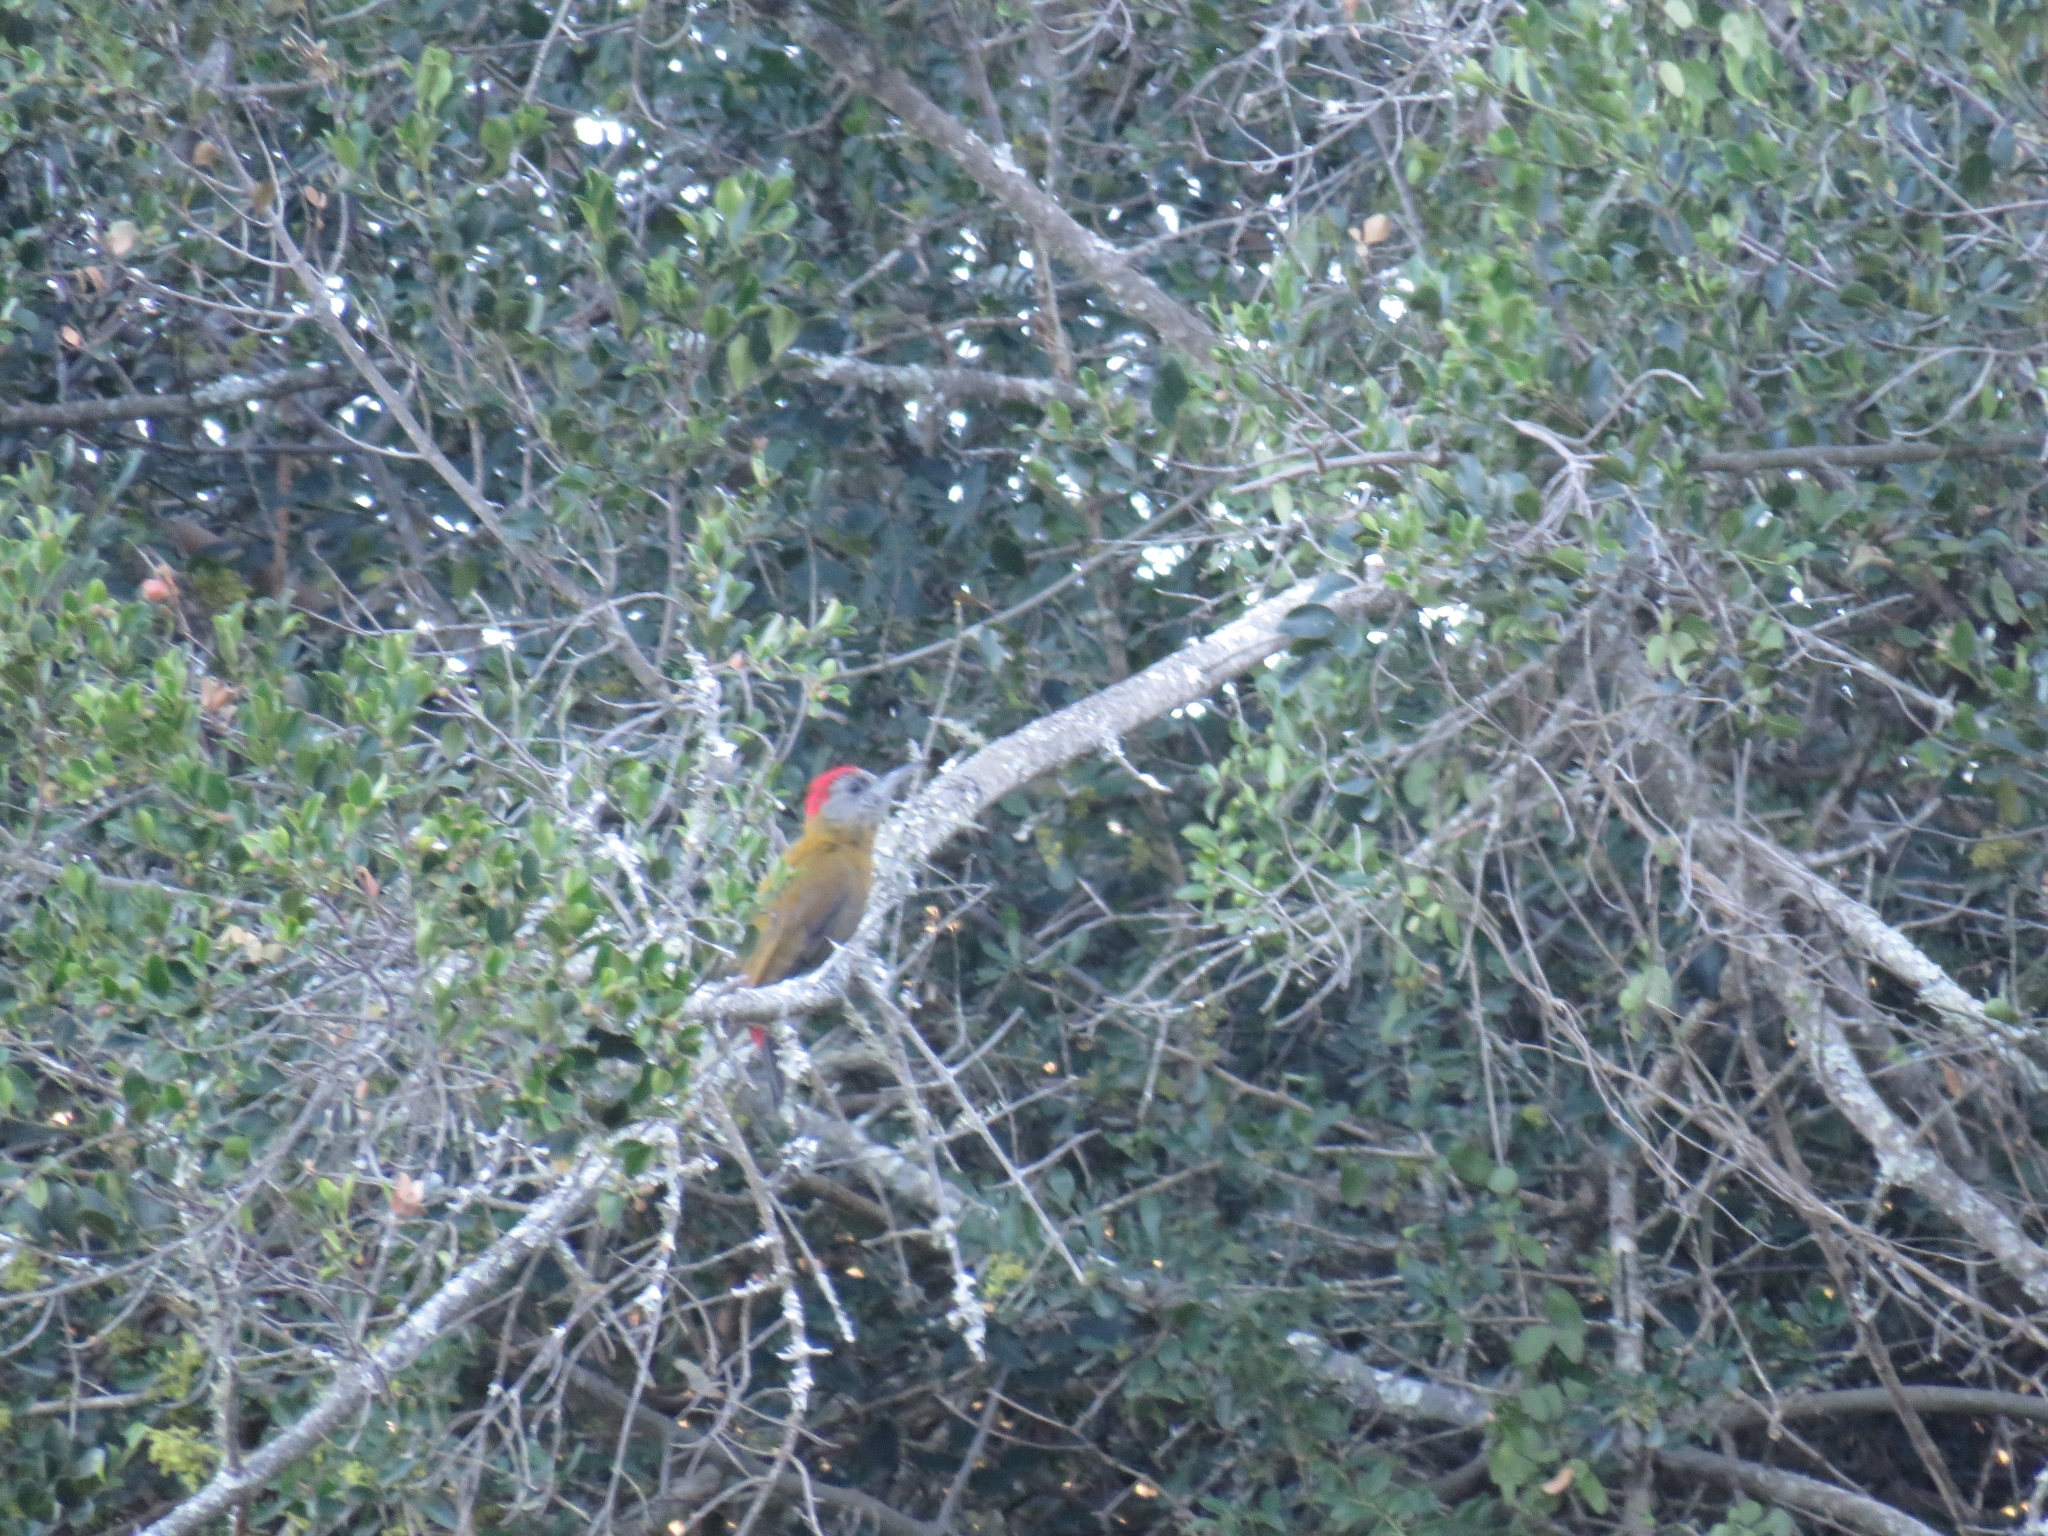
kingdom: Animalia
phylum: Chordata
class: Aves
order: Piciformes
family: Picidae
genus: Dendropicos
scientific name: Dendropicos griseocephalus
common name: Olive woodpecker
